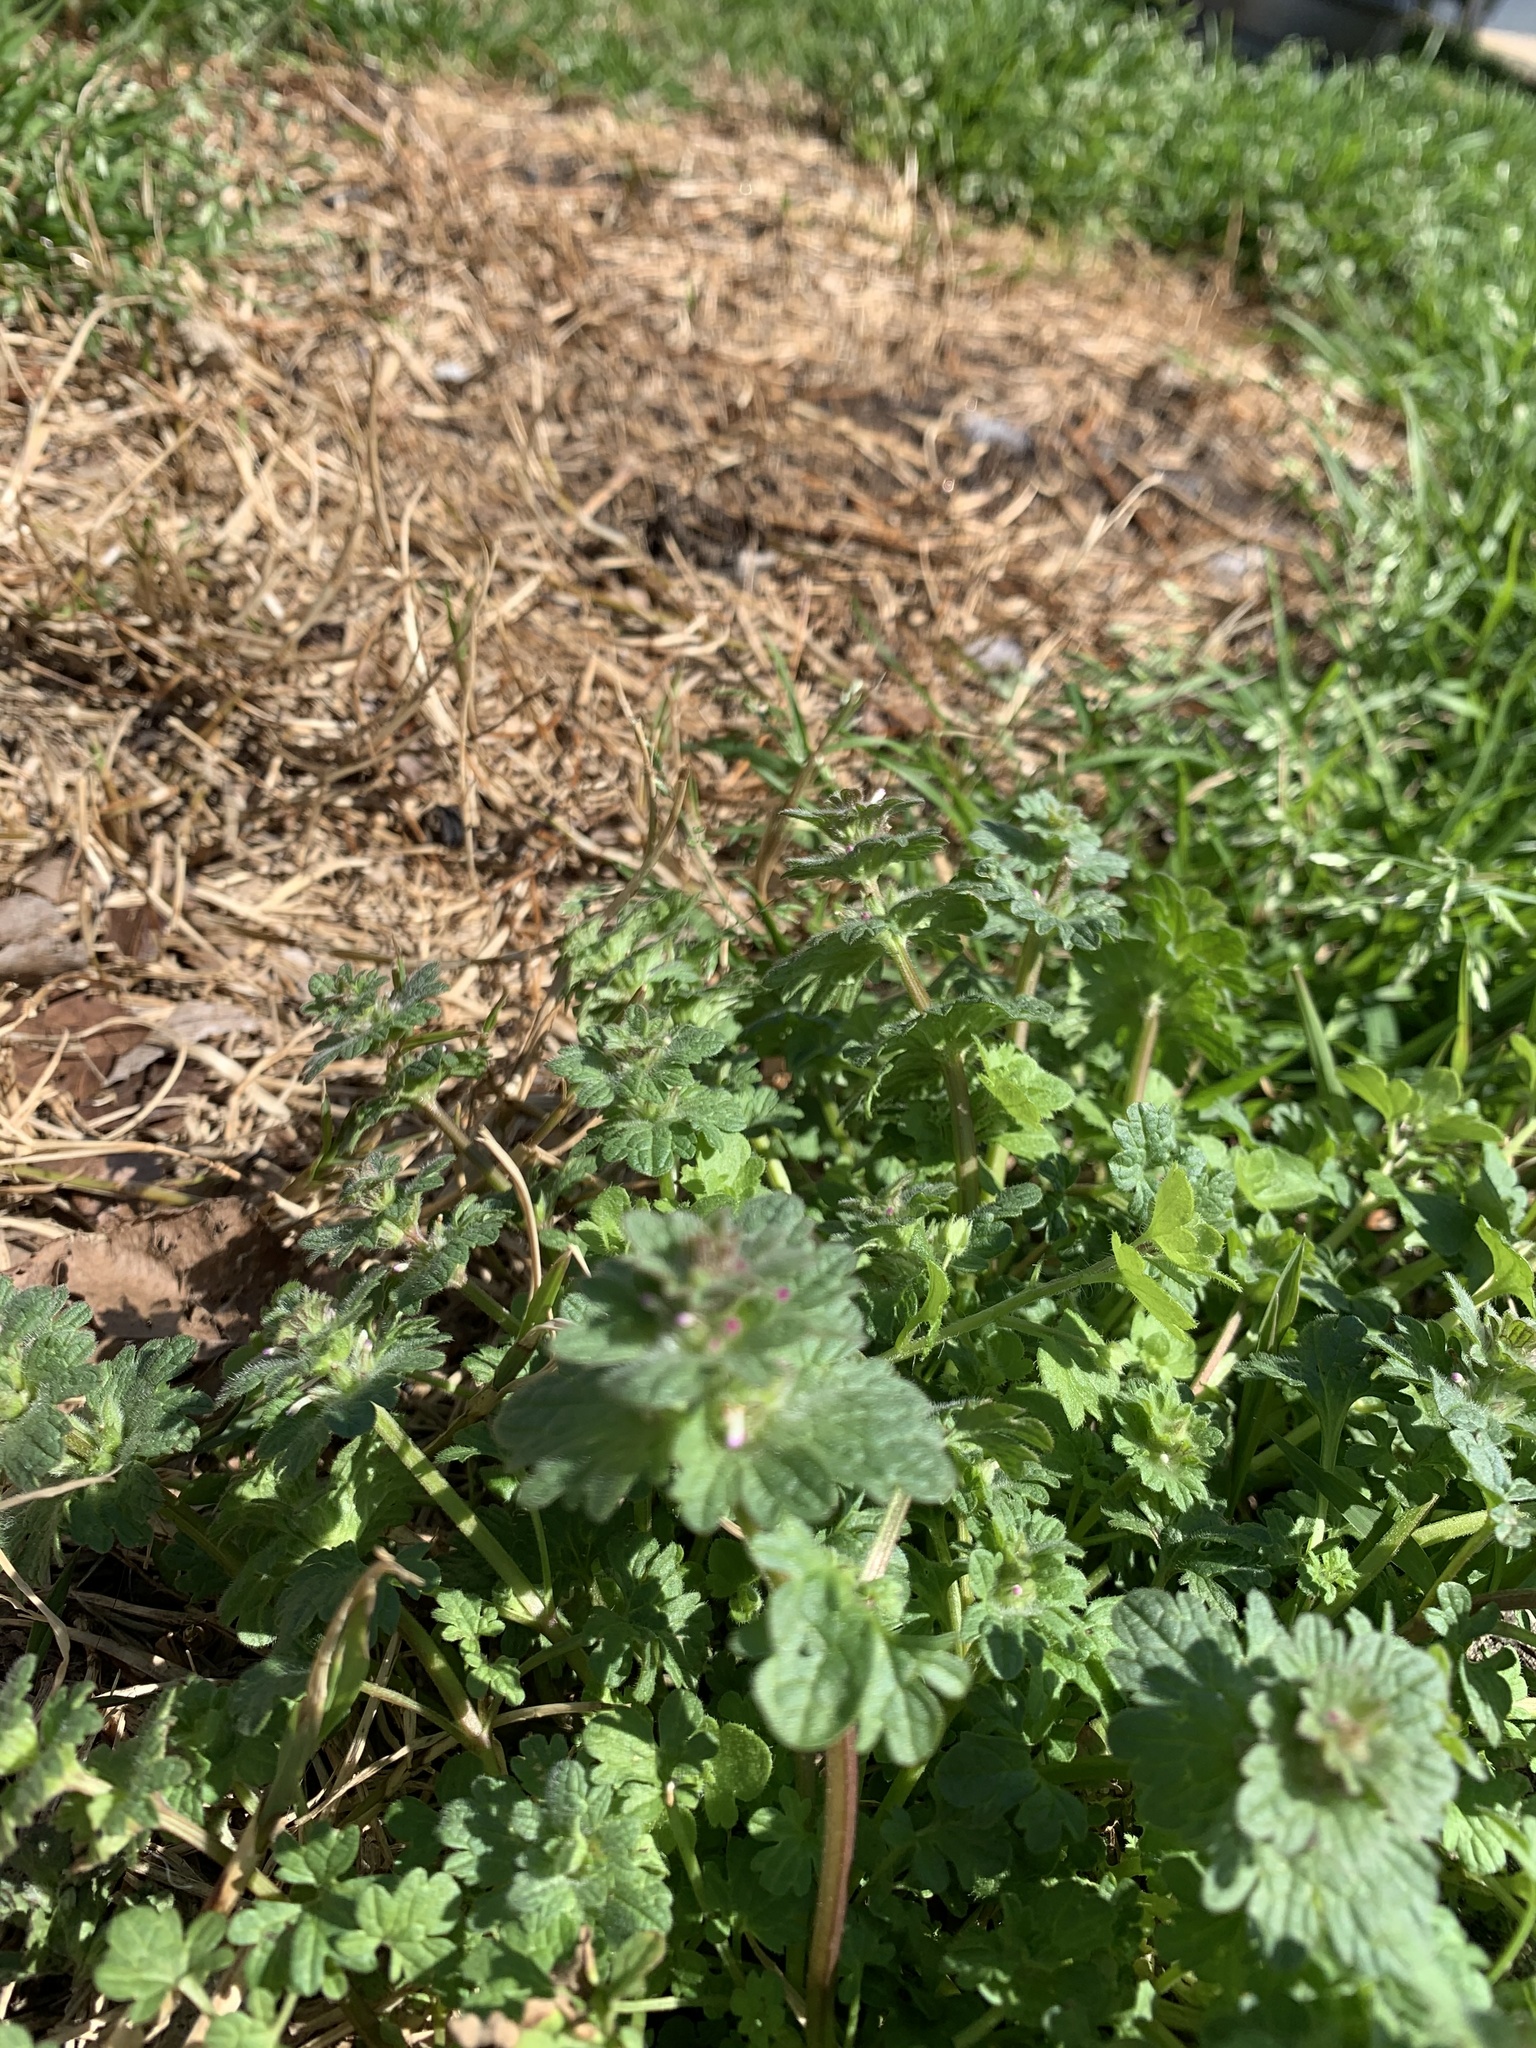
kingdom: Plantae
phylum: Tracheophyta
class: Magnoliopsida
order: Lamiales
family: Lamiaceae
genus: Lamium
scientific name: Lamium amplexicaule
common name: Henbit dead-nettle
